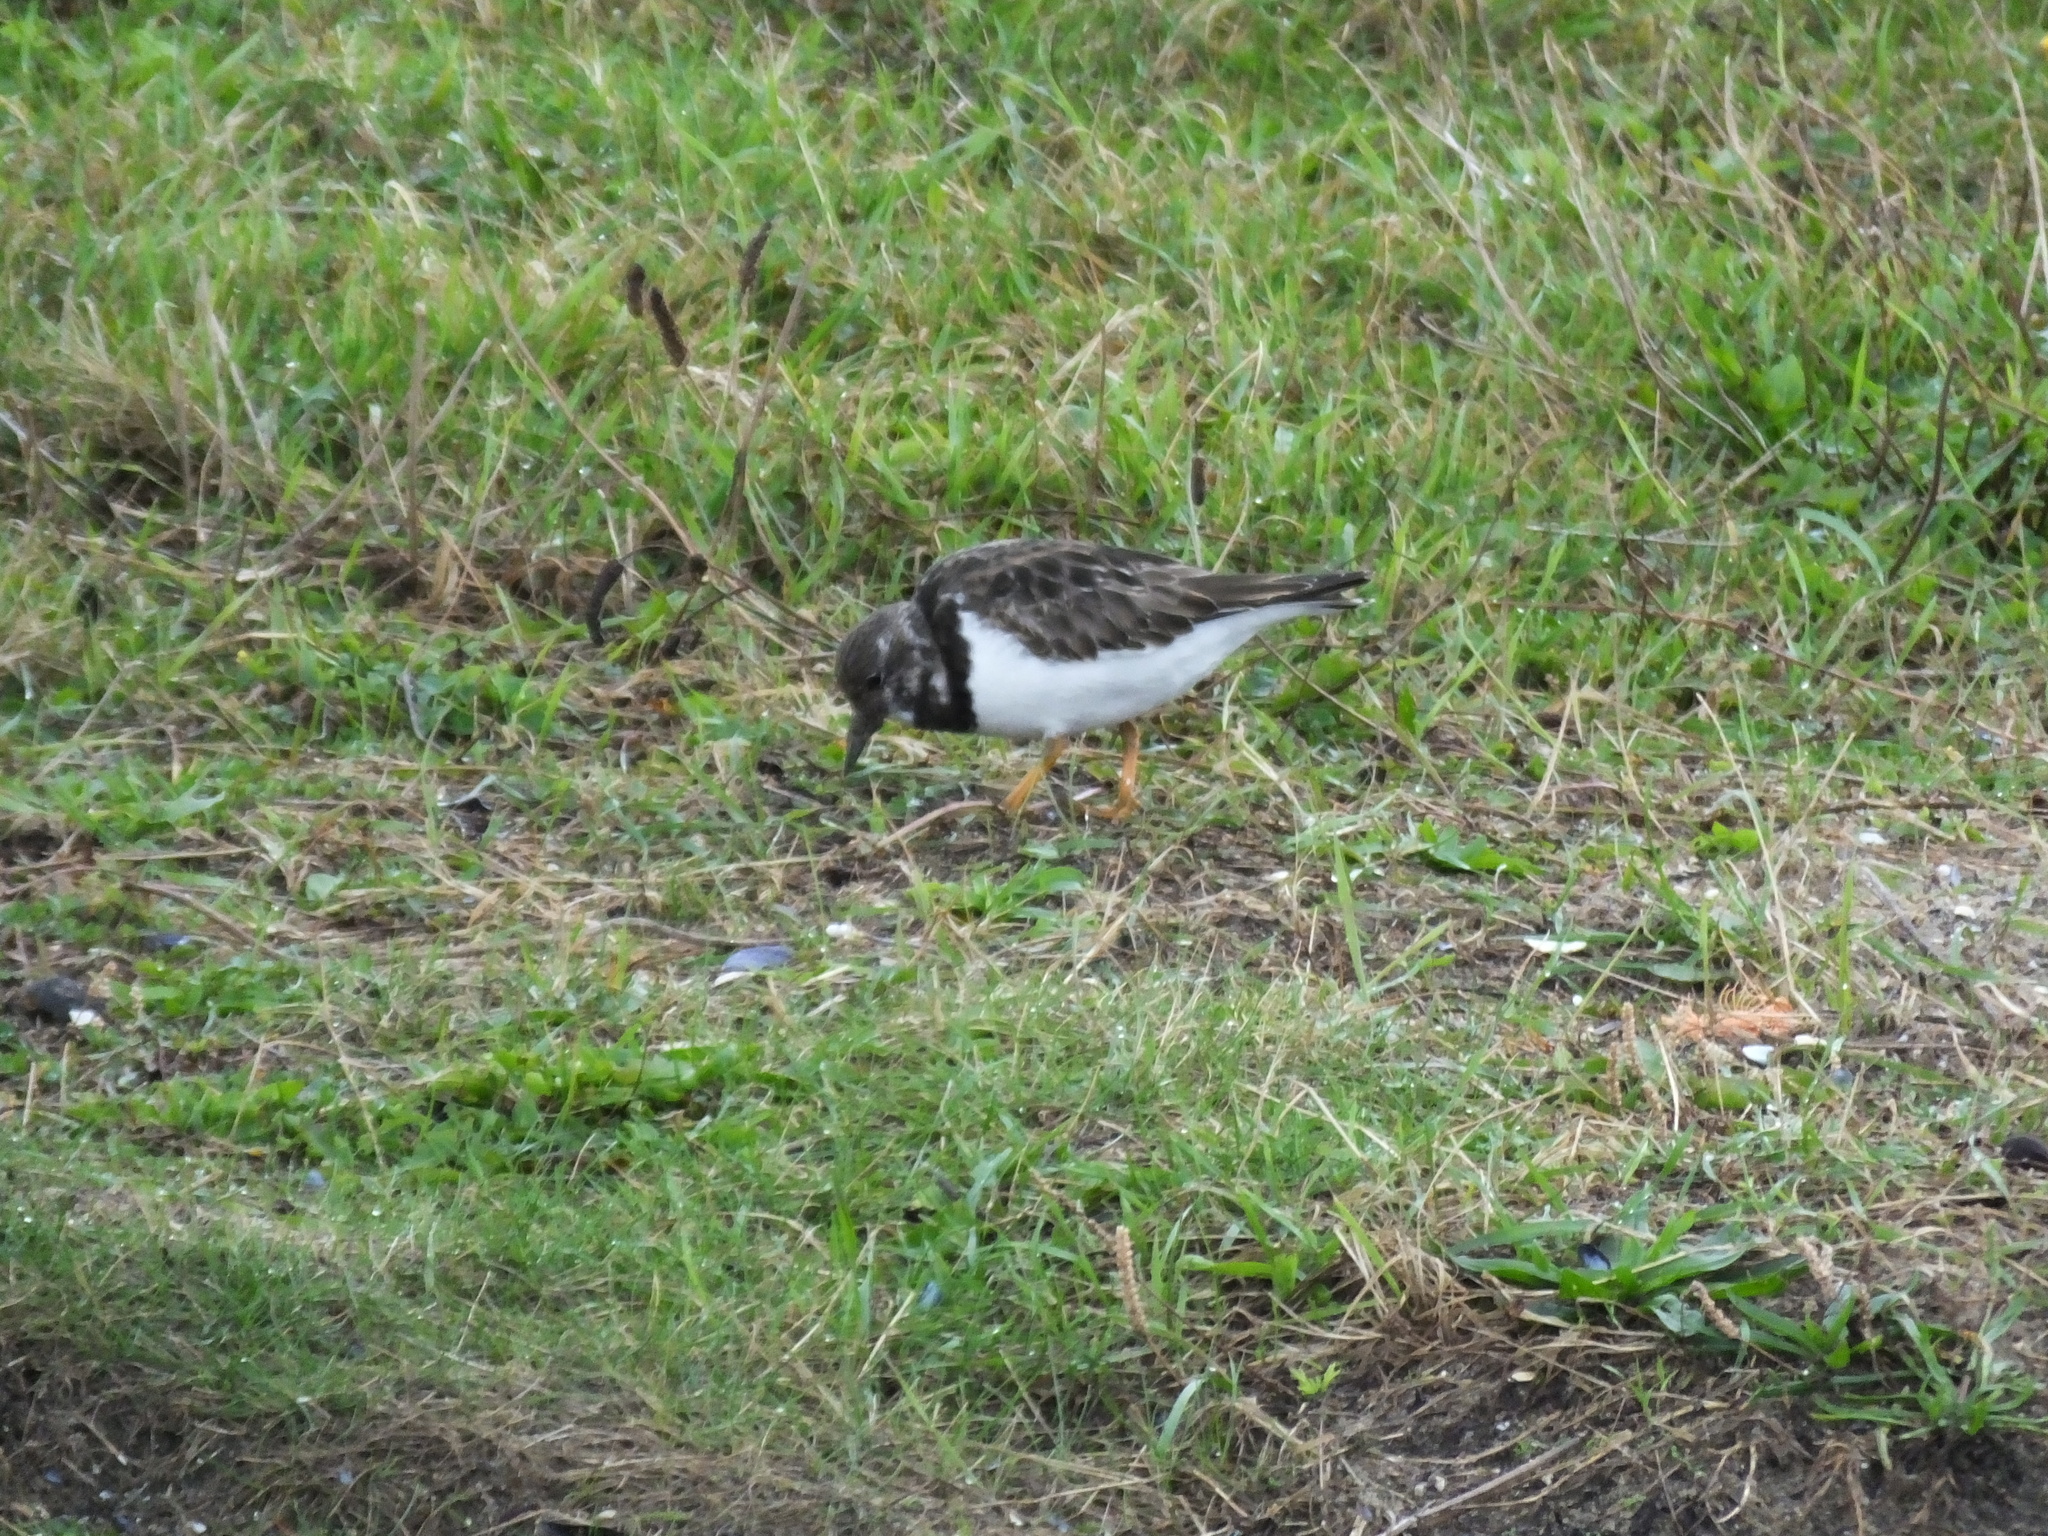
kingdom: Animalia
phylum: Chordata
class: Aves
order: Charadriiformes
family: Scolopacidae
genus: Arenaria
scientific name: Arenaria interpres
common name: Ruddy turnstone
